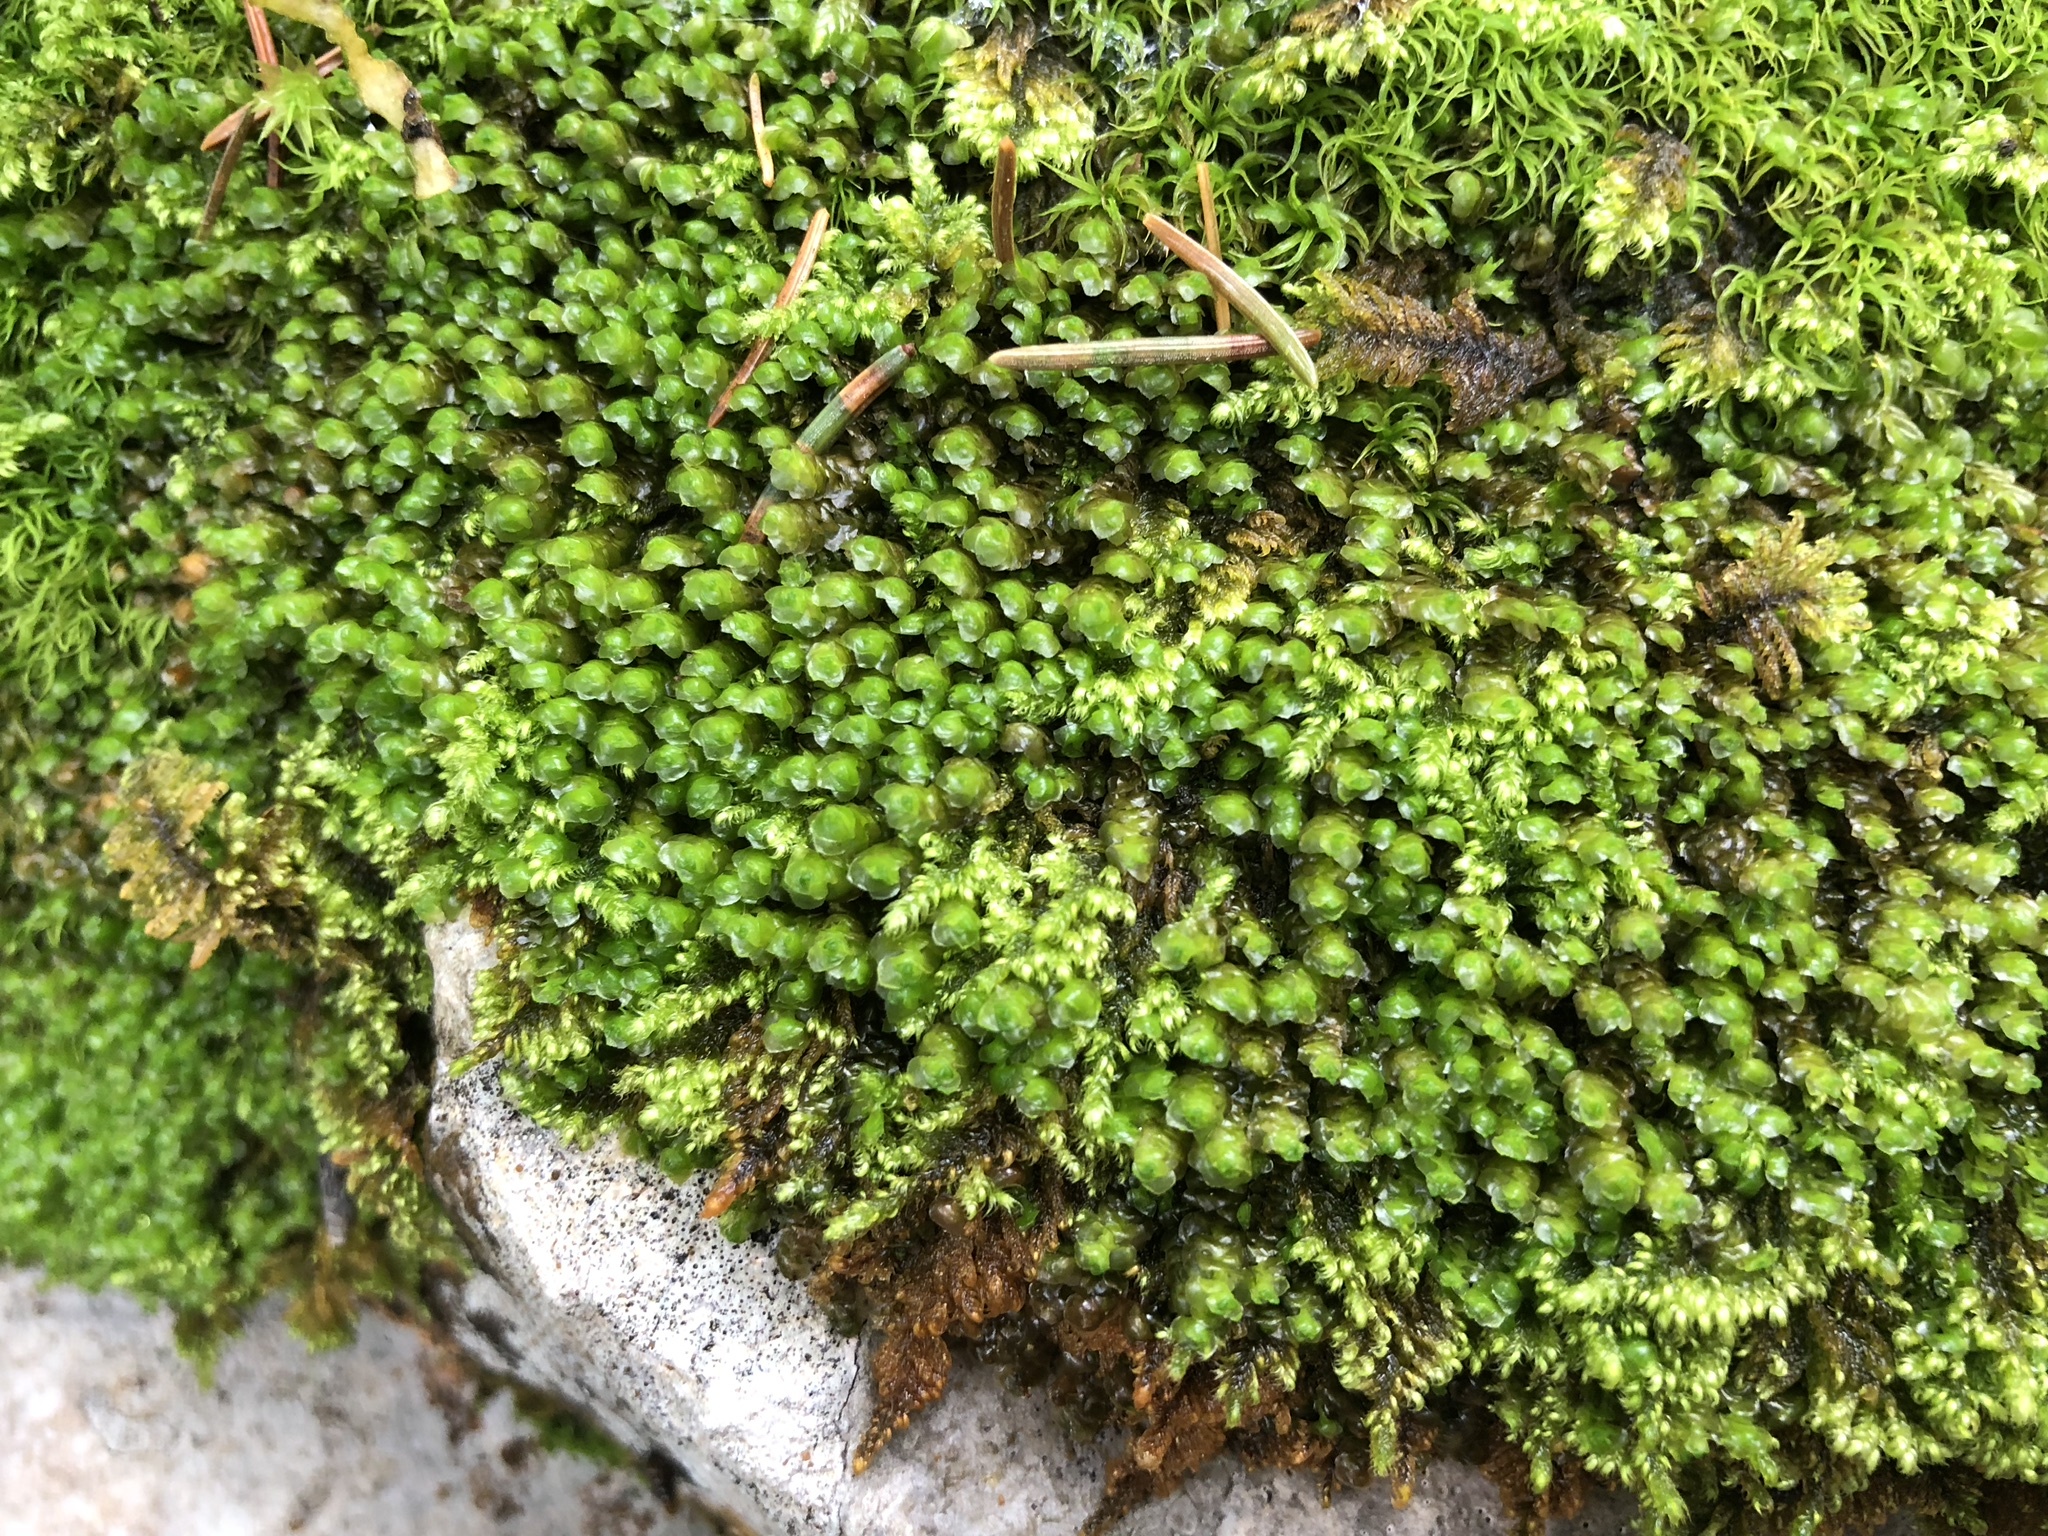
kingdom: Plantae
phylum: Marchantiophyta
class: Jungermanniopsida
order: Jungermanniales
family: Scapaniaceae
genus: Scapania
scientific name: Scapania aspera
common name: Rough earwort
